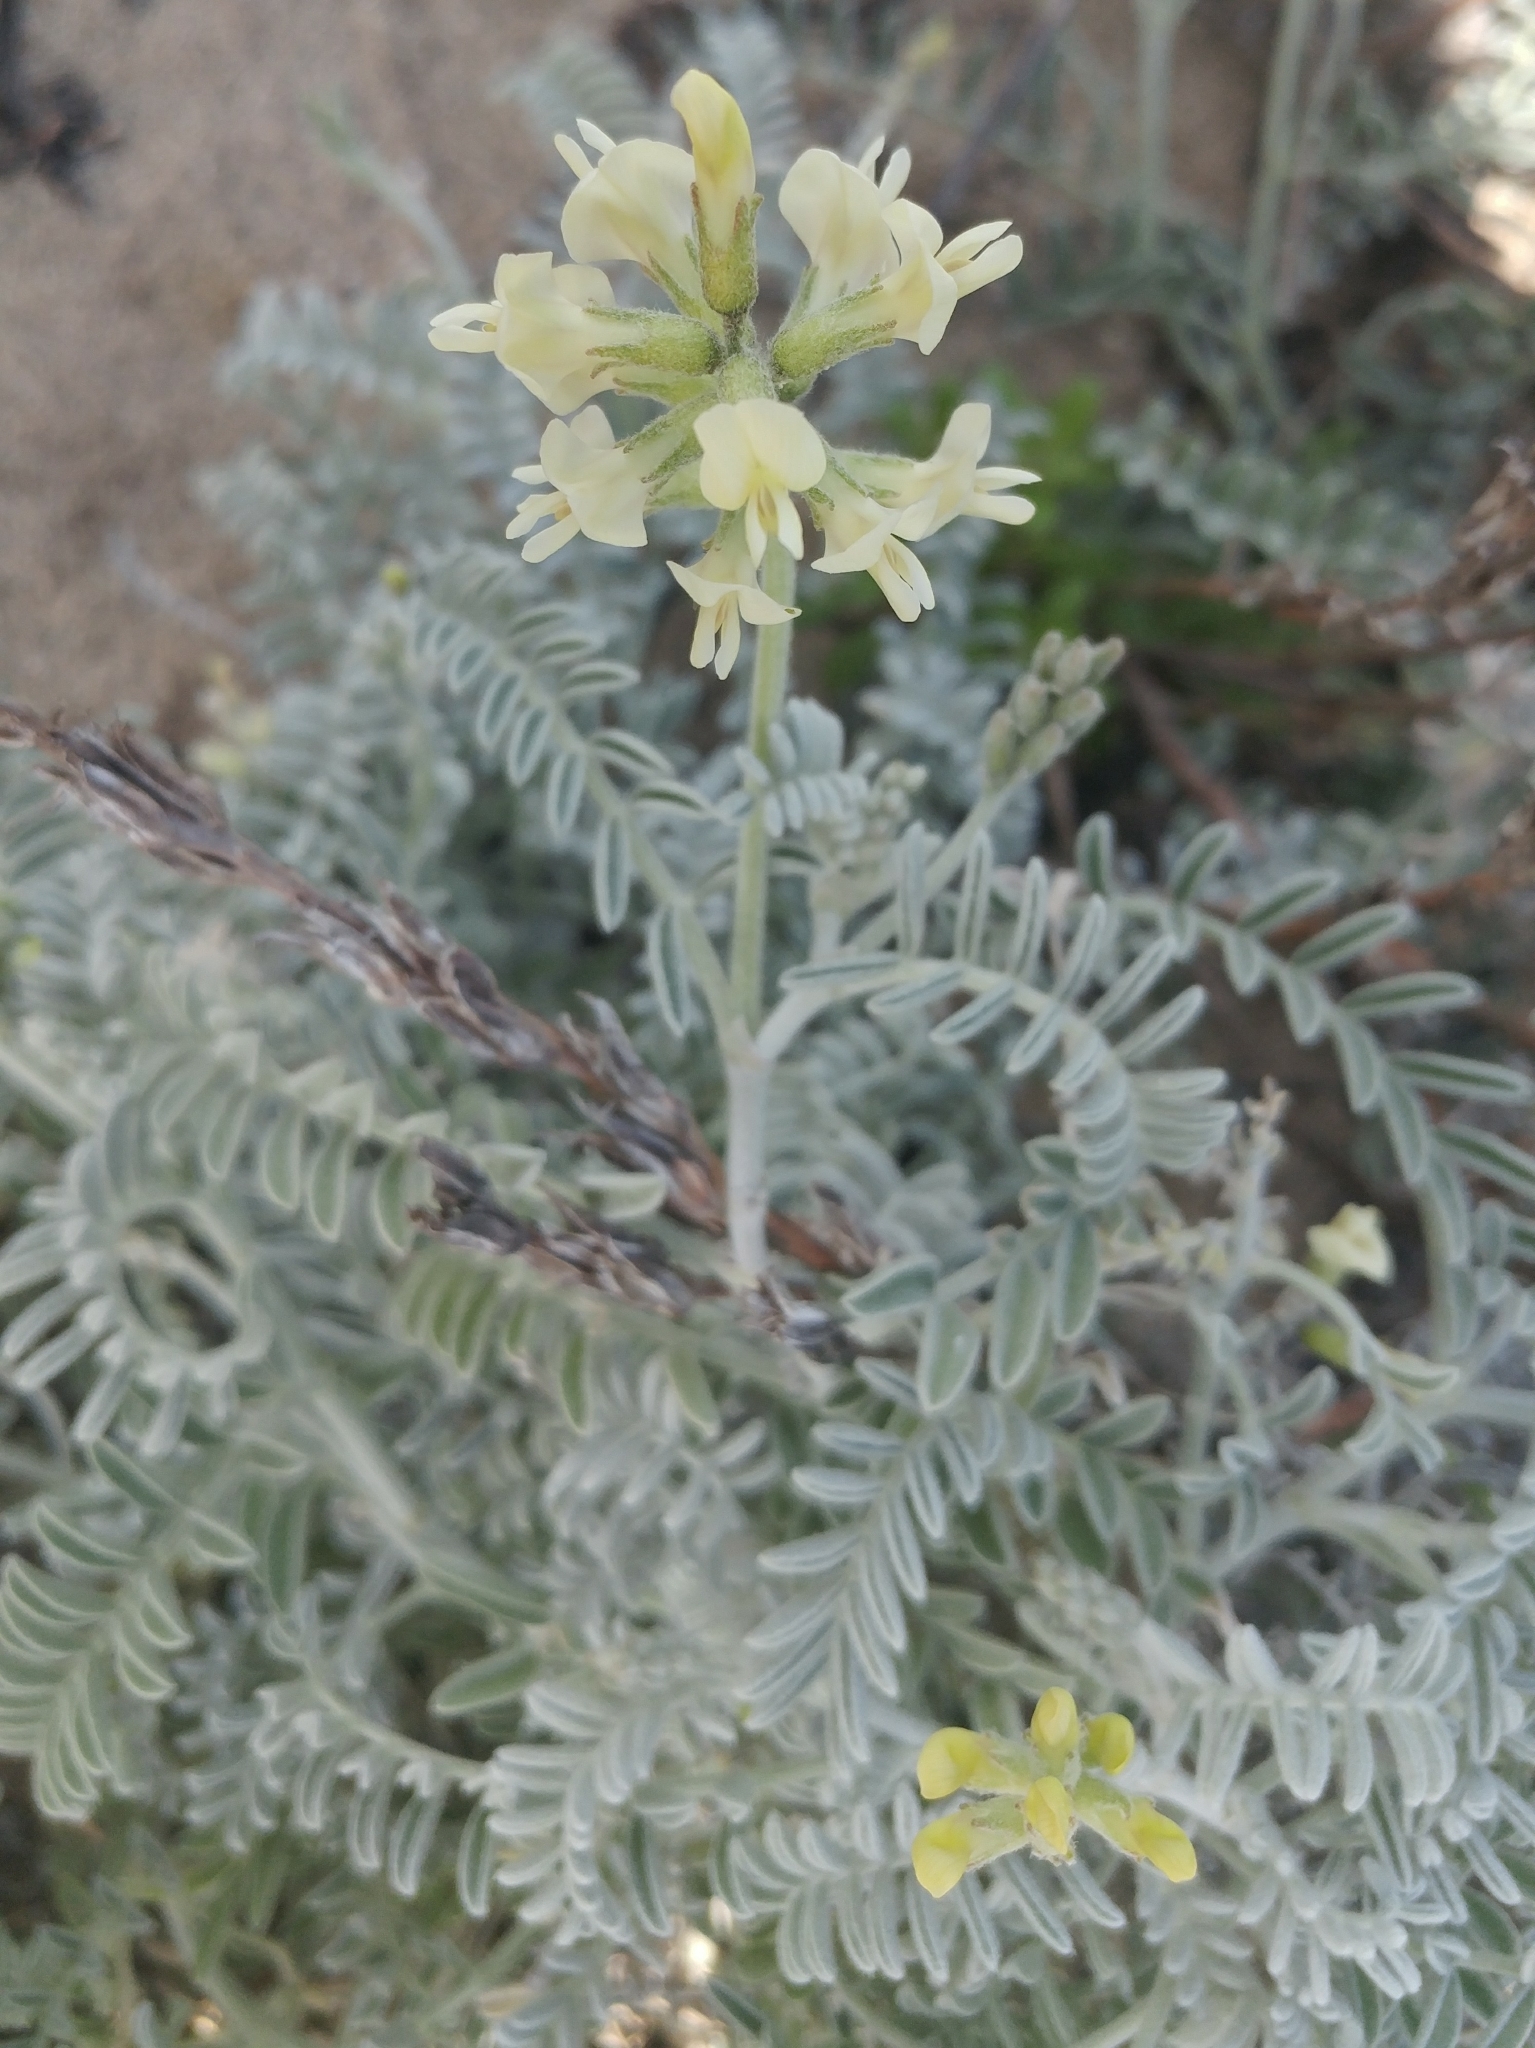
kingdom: Plantae
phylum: Tracheophyta
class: Magnoliopsida
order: Fabales
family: Fabaceae
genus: Astragalus
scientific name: Astragalus miguelensis
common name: San miguel milk-vetch
